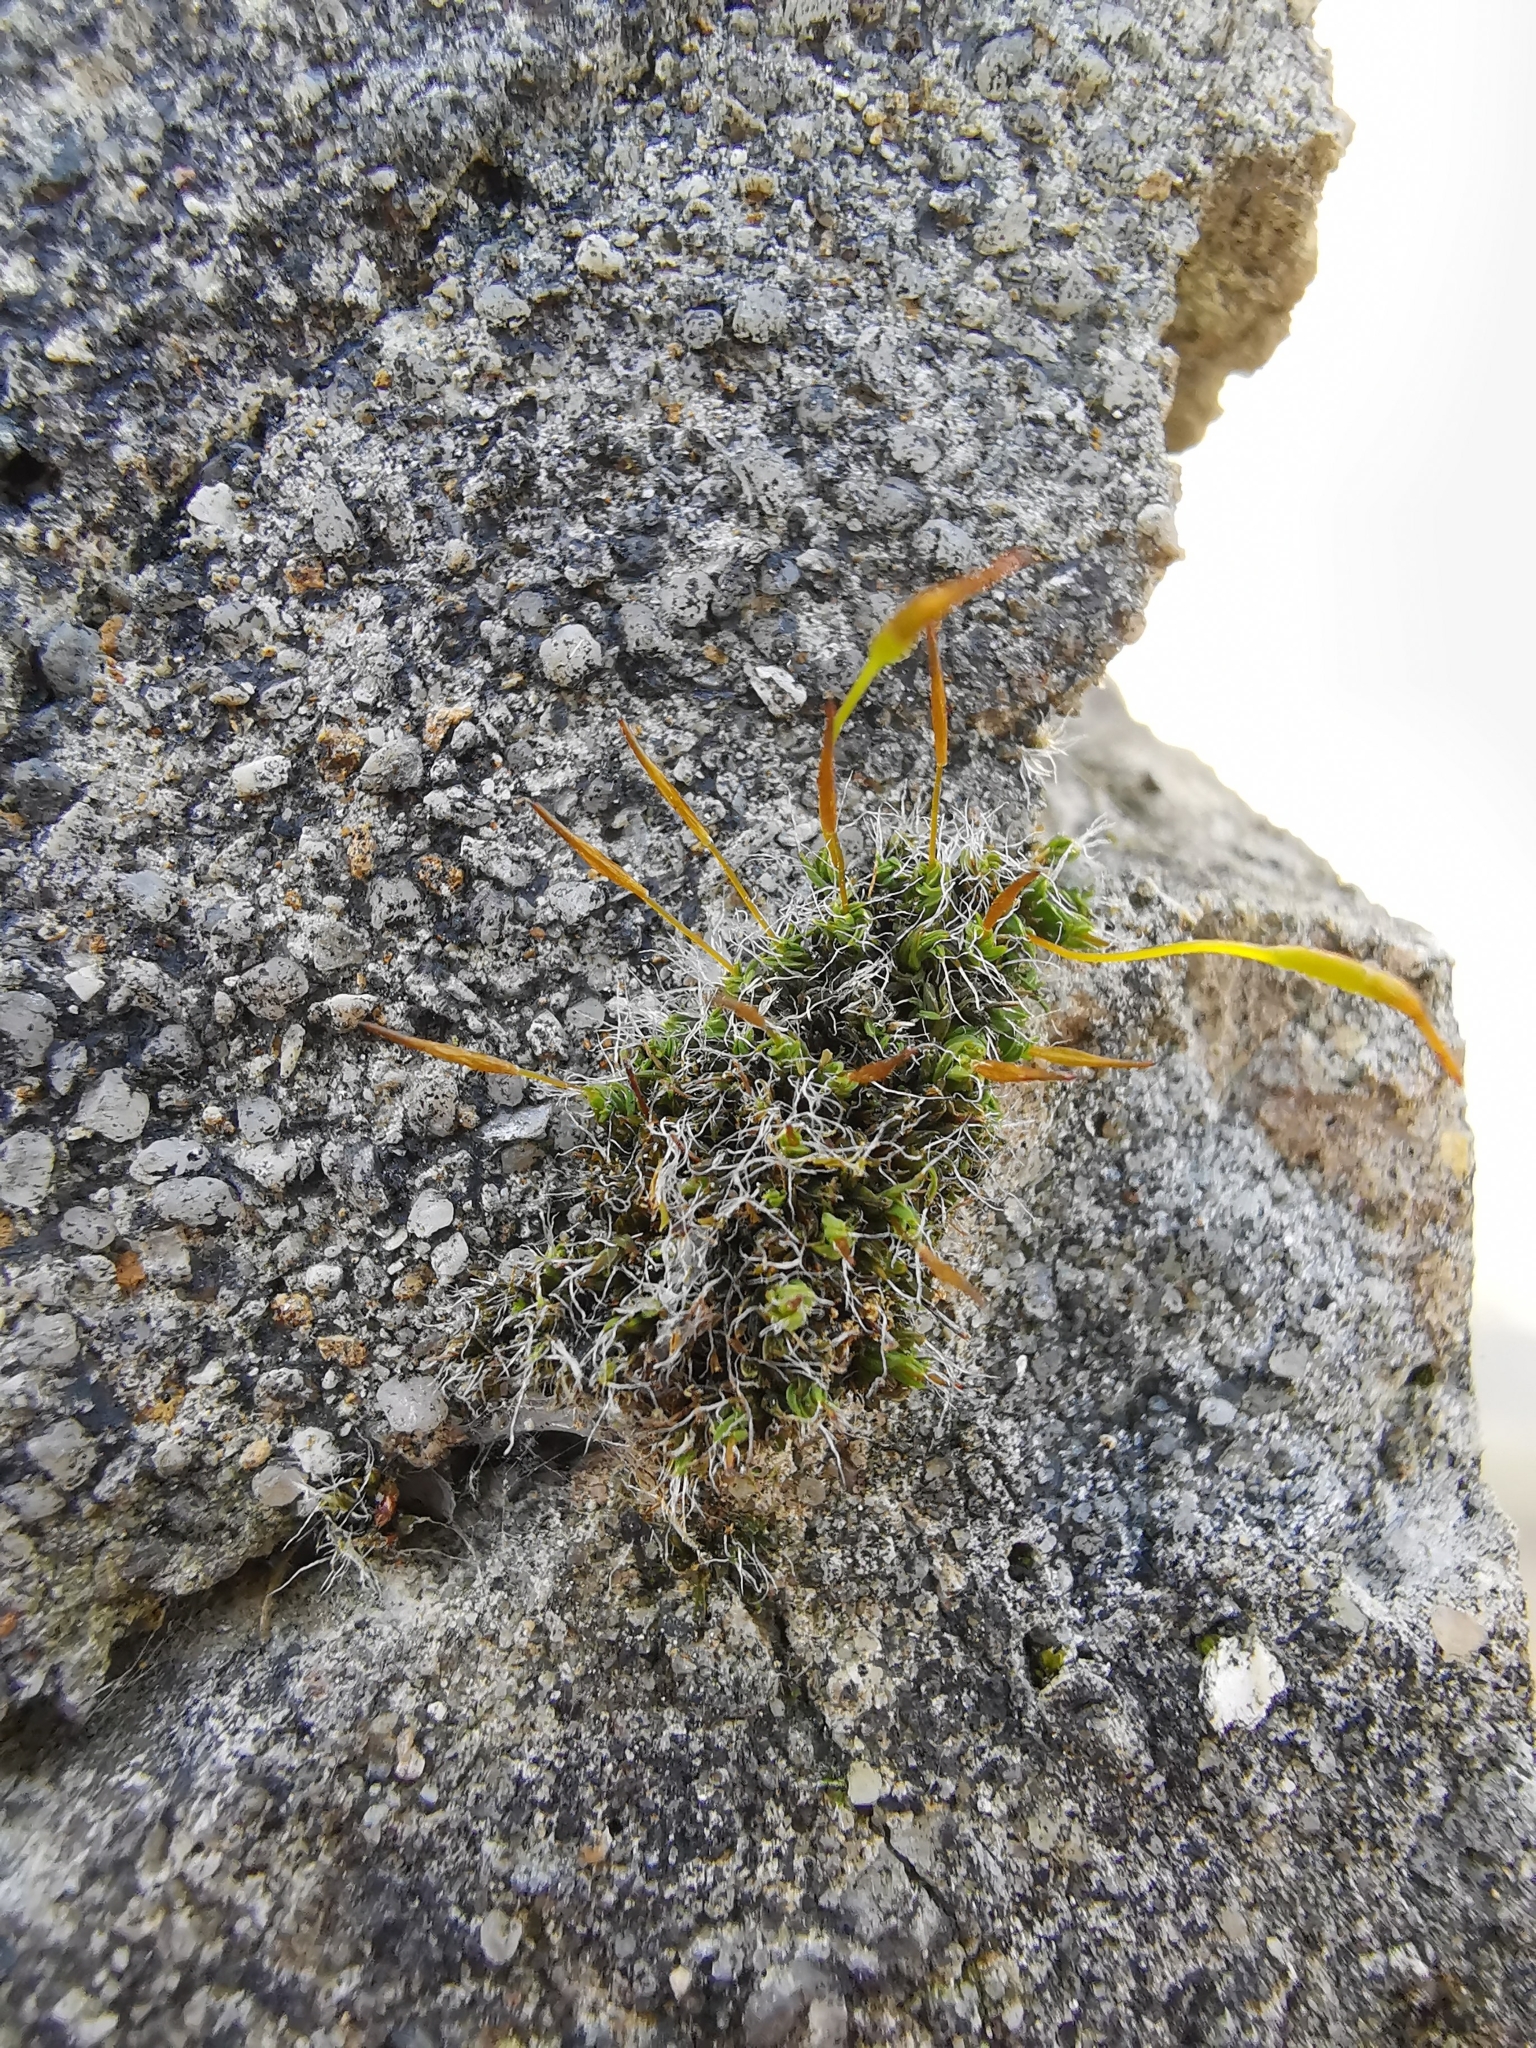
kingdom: Plantae
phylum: Bryophyta
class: Bryopsida
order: Pottiales
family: Pottiaceae
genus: Tortula
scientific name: Tortula muralis
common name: Wall screw-moss
